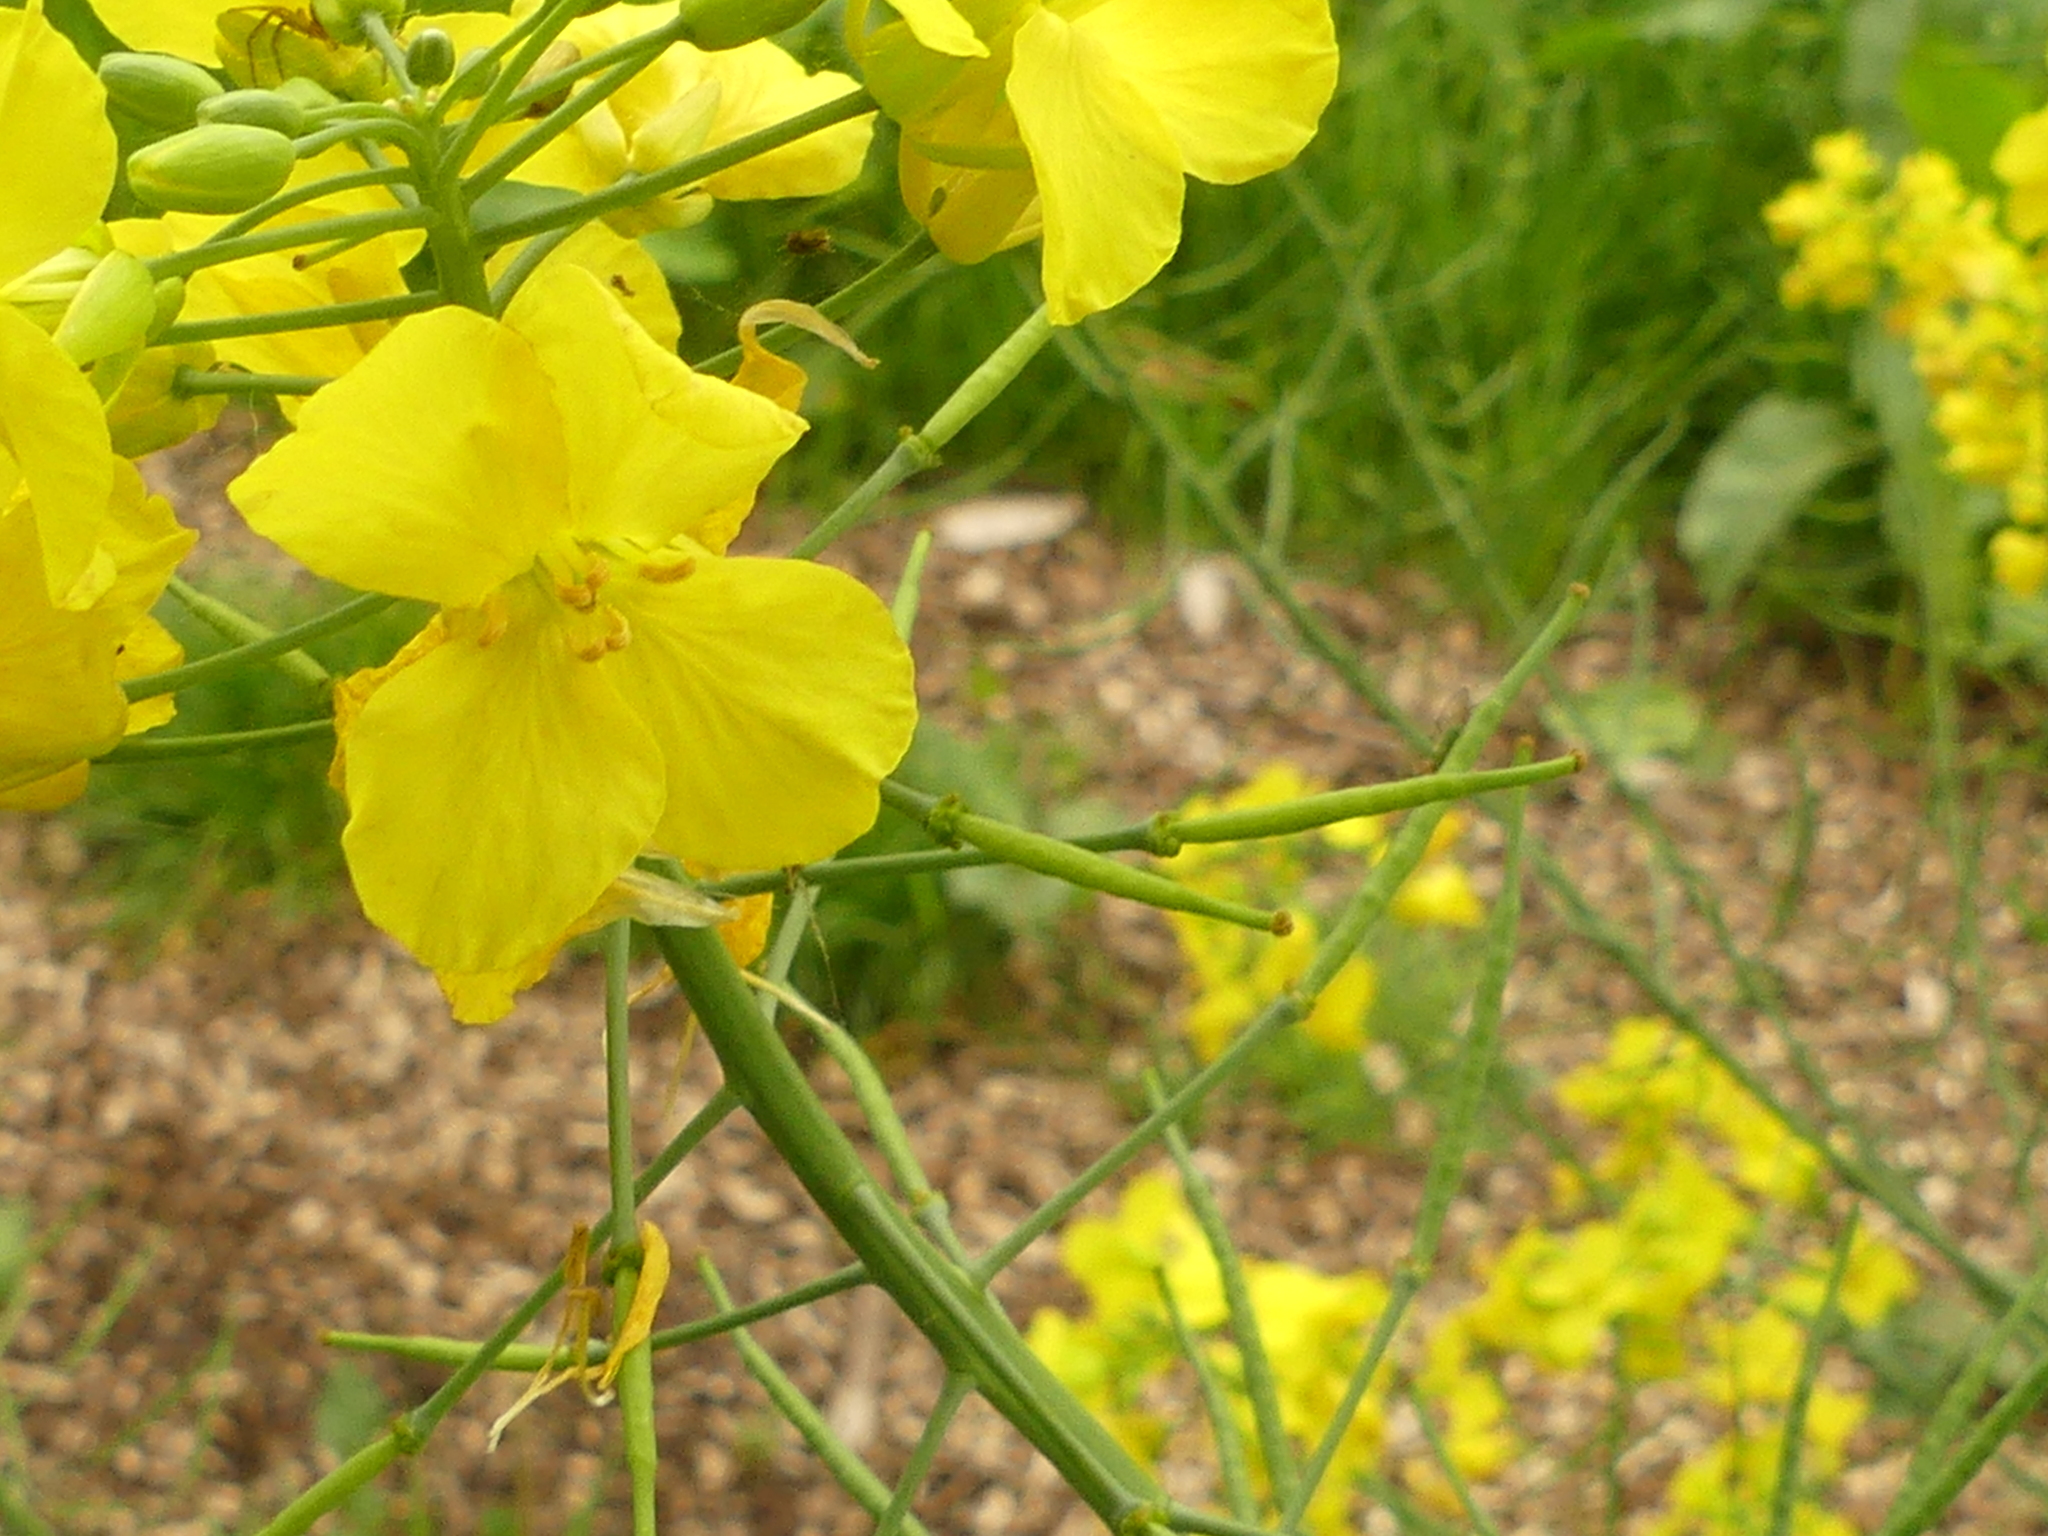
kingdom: Plantae
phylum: Tracheophyta
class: Magnoliopsida
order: Brassicales
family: Brassicaceae
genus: Brassica
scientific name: Brassica napus
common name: Rape
